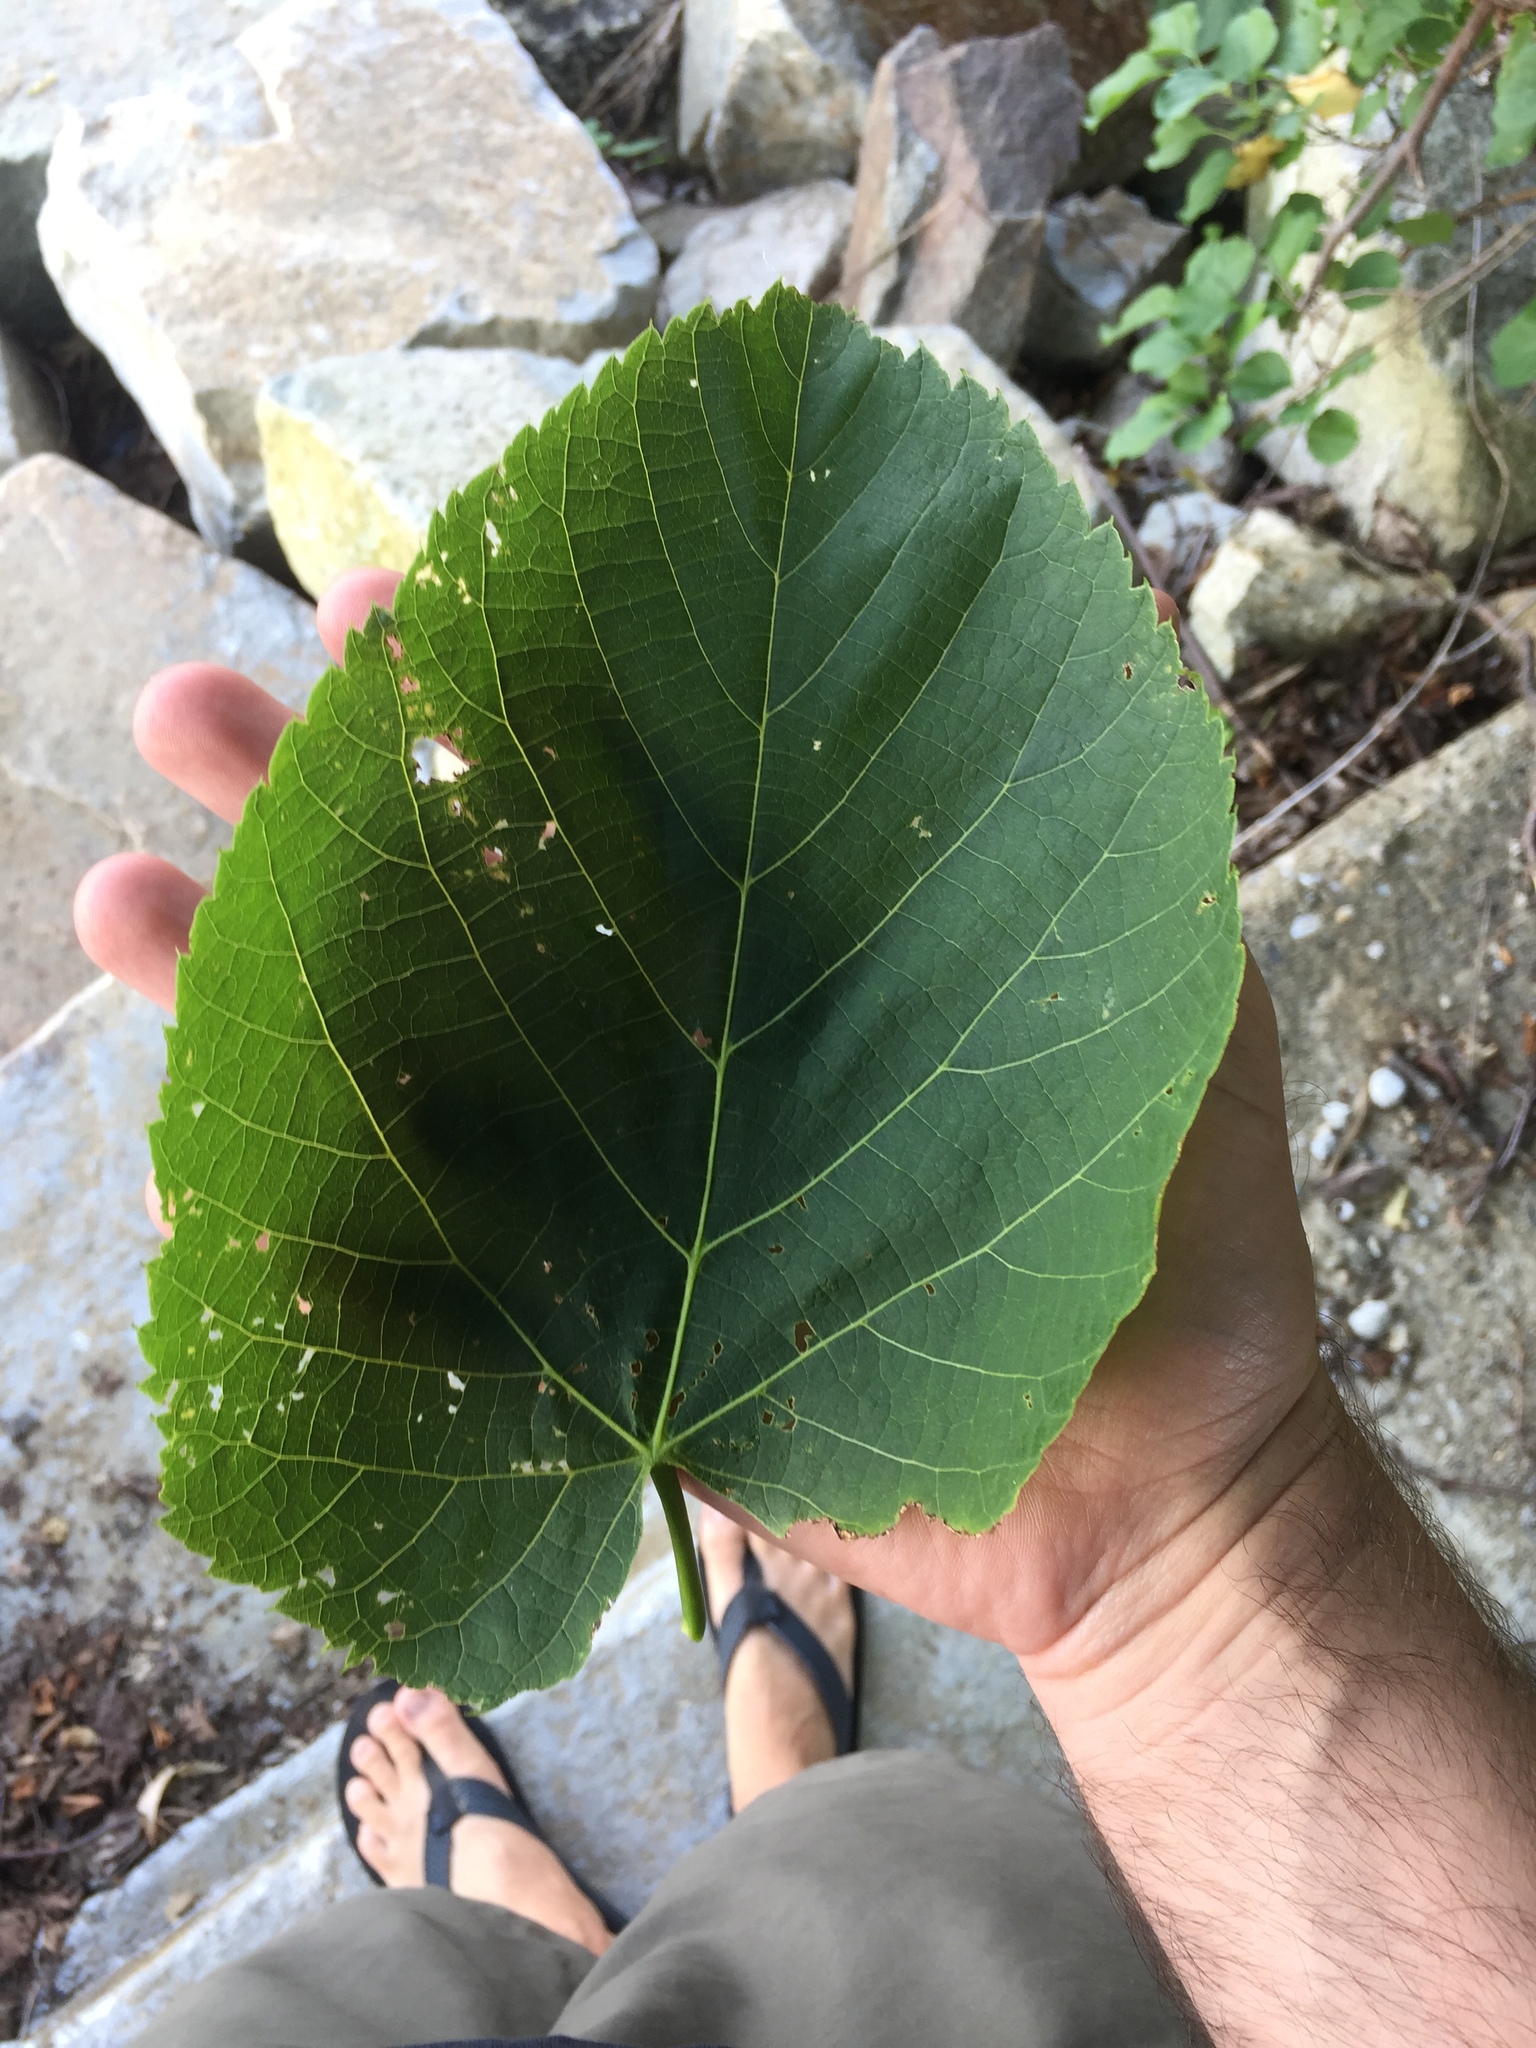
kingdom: Plantae
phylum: Tracheophyta
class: Magnoliopsida
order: Malvales
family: Malvaceae
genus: Tilia
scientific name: Tilia americana
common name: Basswood
